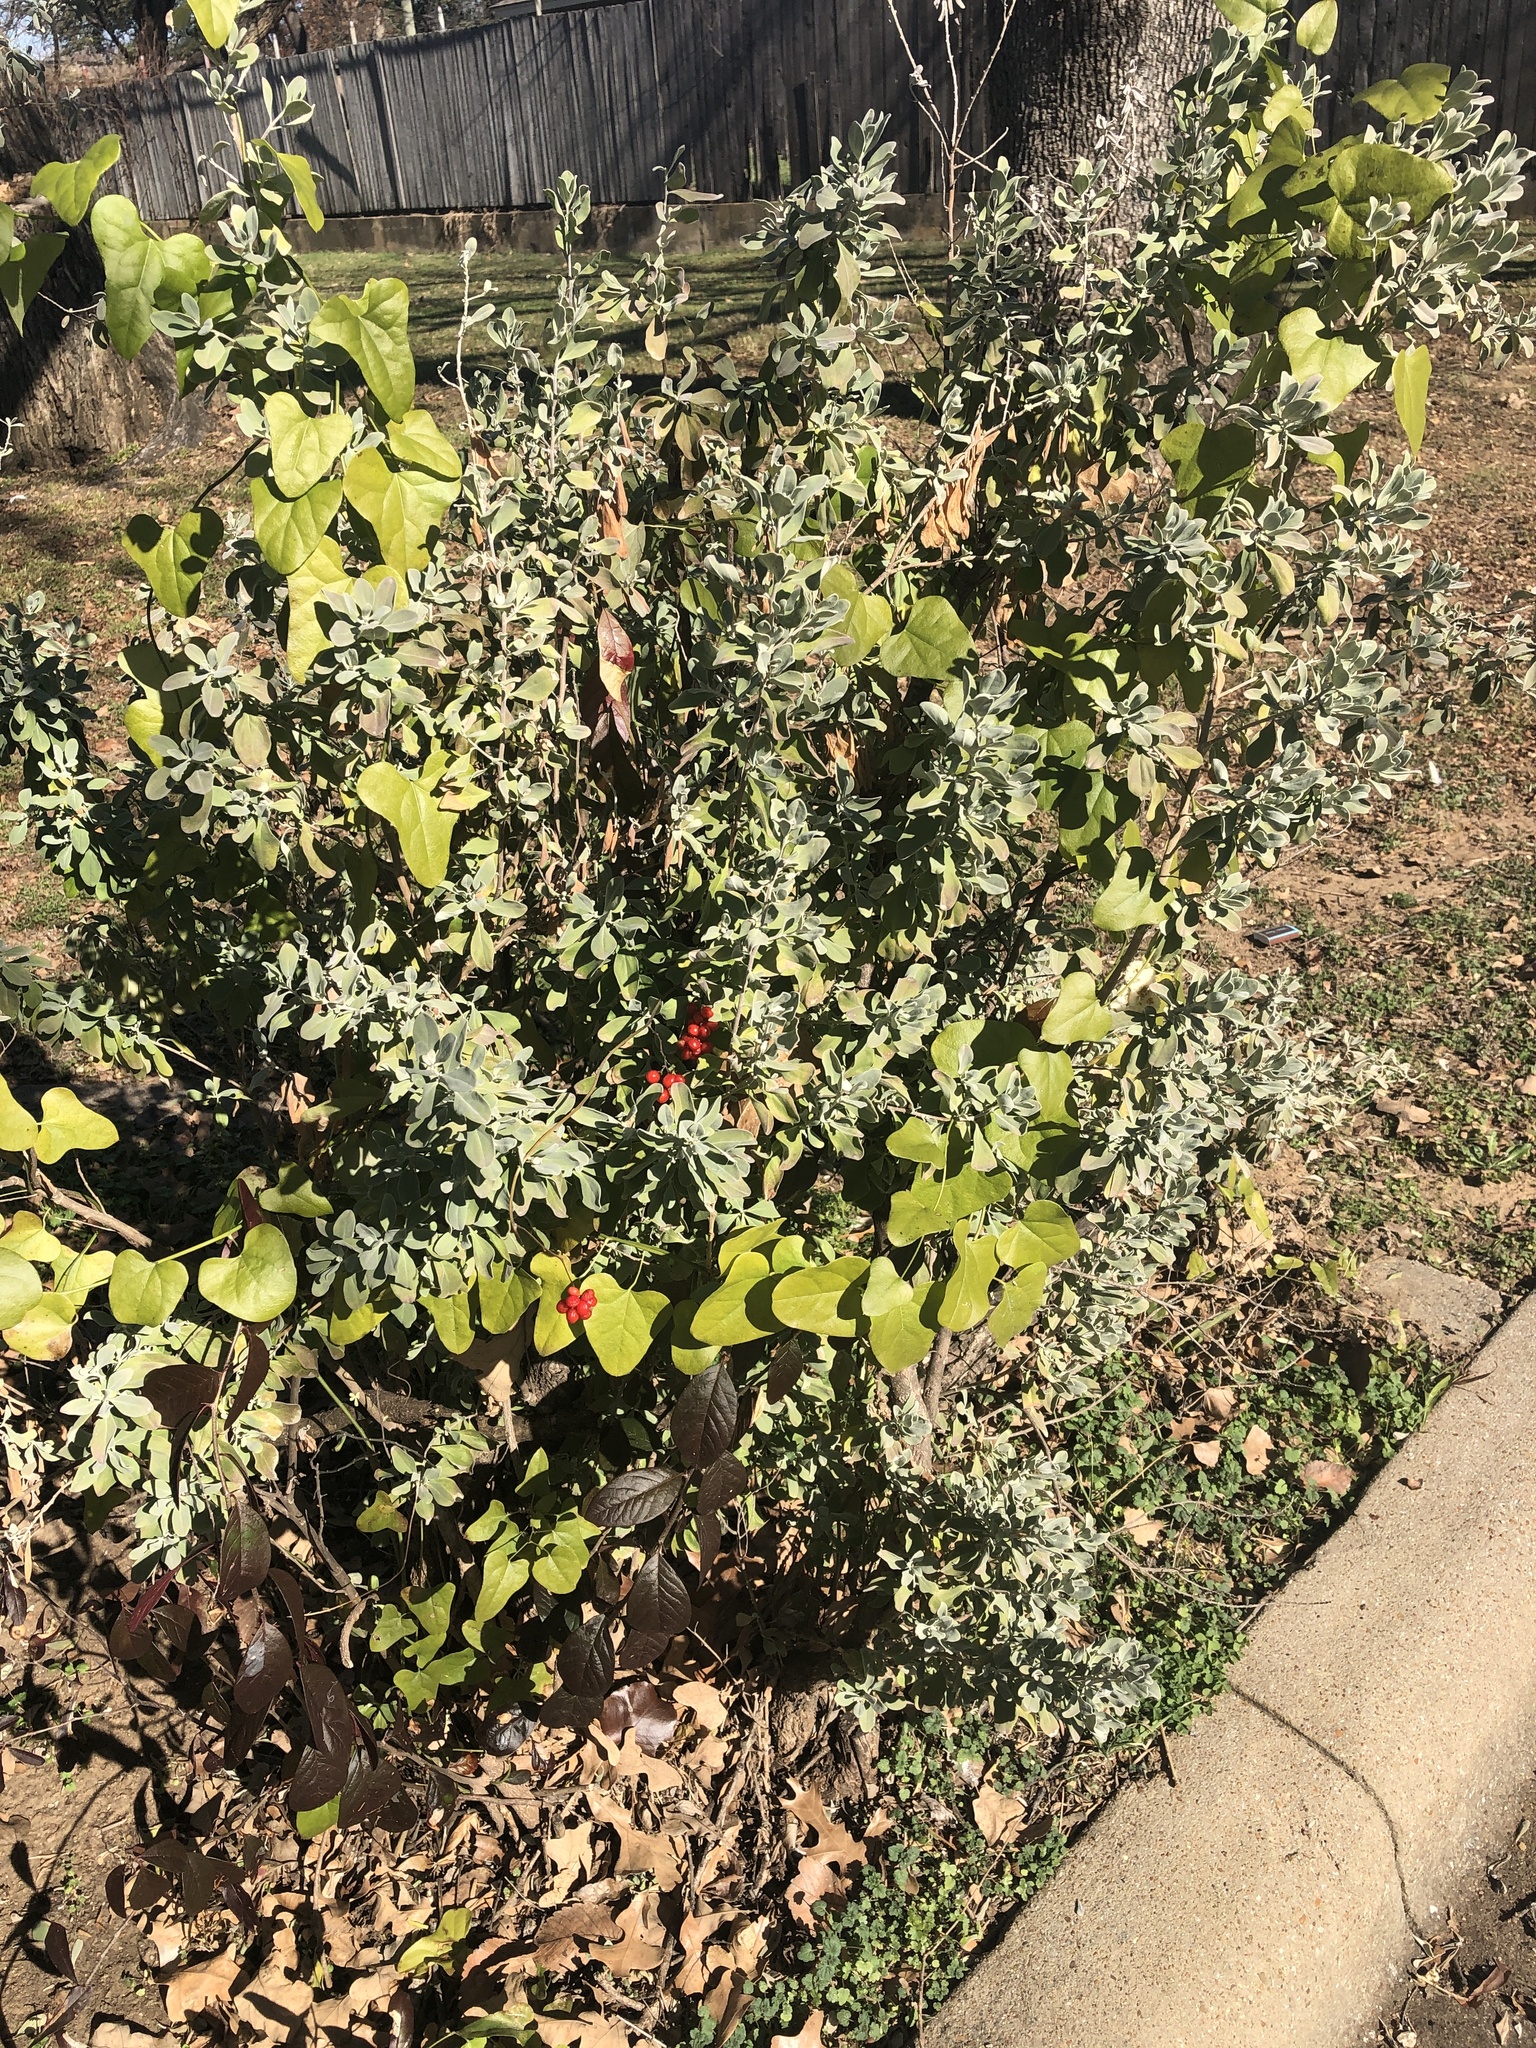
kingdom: Plantae
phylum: Tracheophyta
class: Magnoliopsida
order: Ranunculales
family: Menispermaceae
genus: Cocculus
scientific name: Cocculus carolinus
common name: Carolina moonseed
